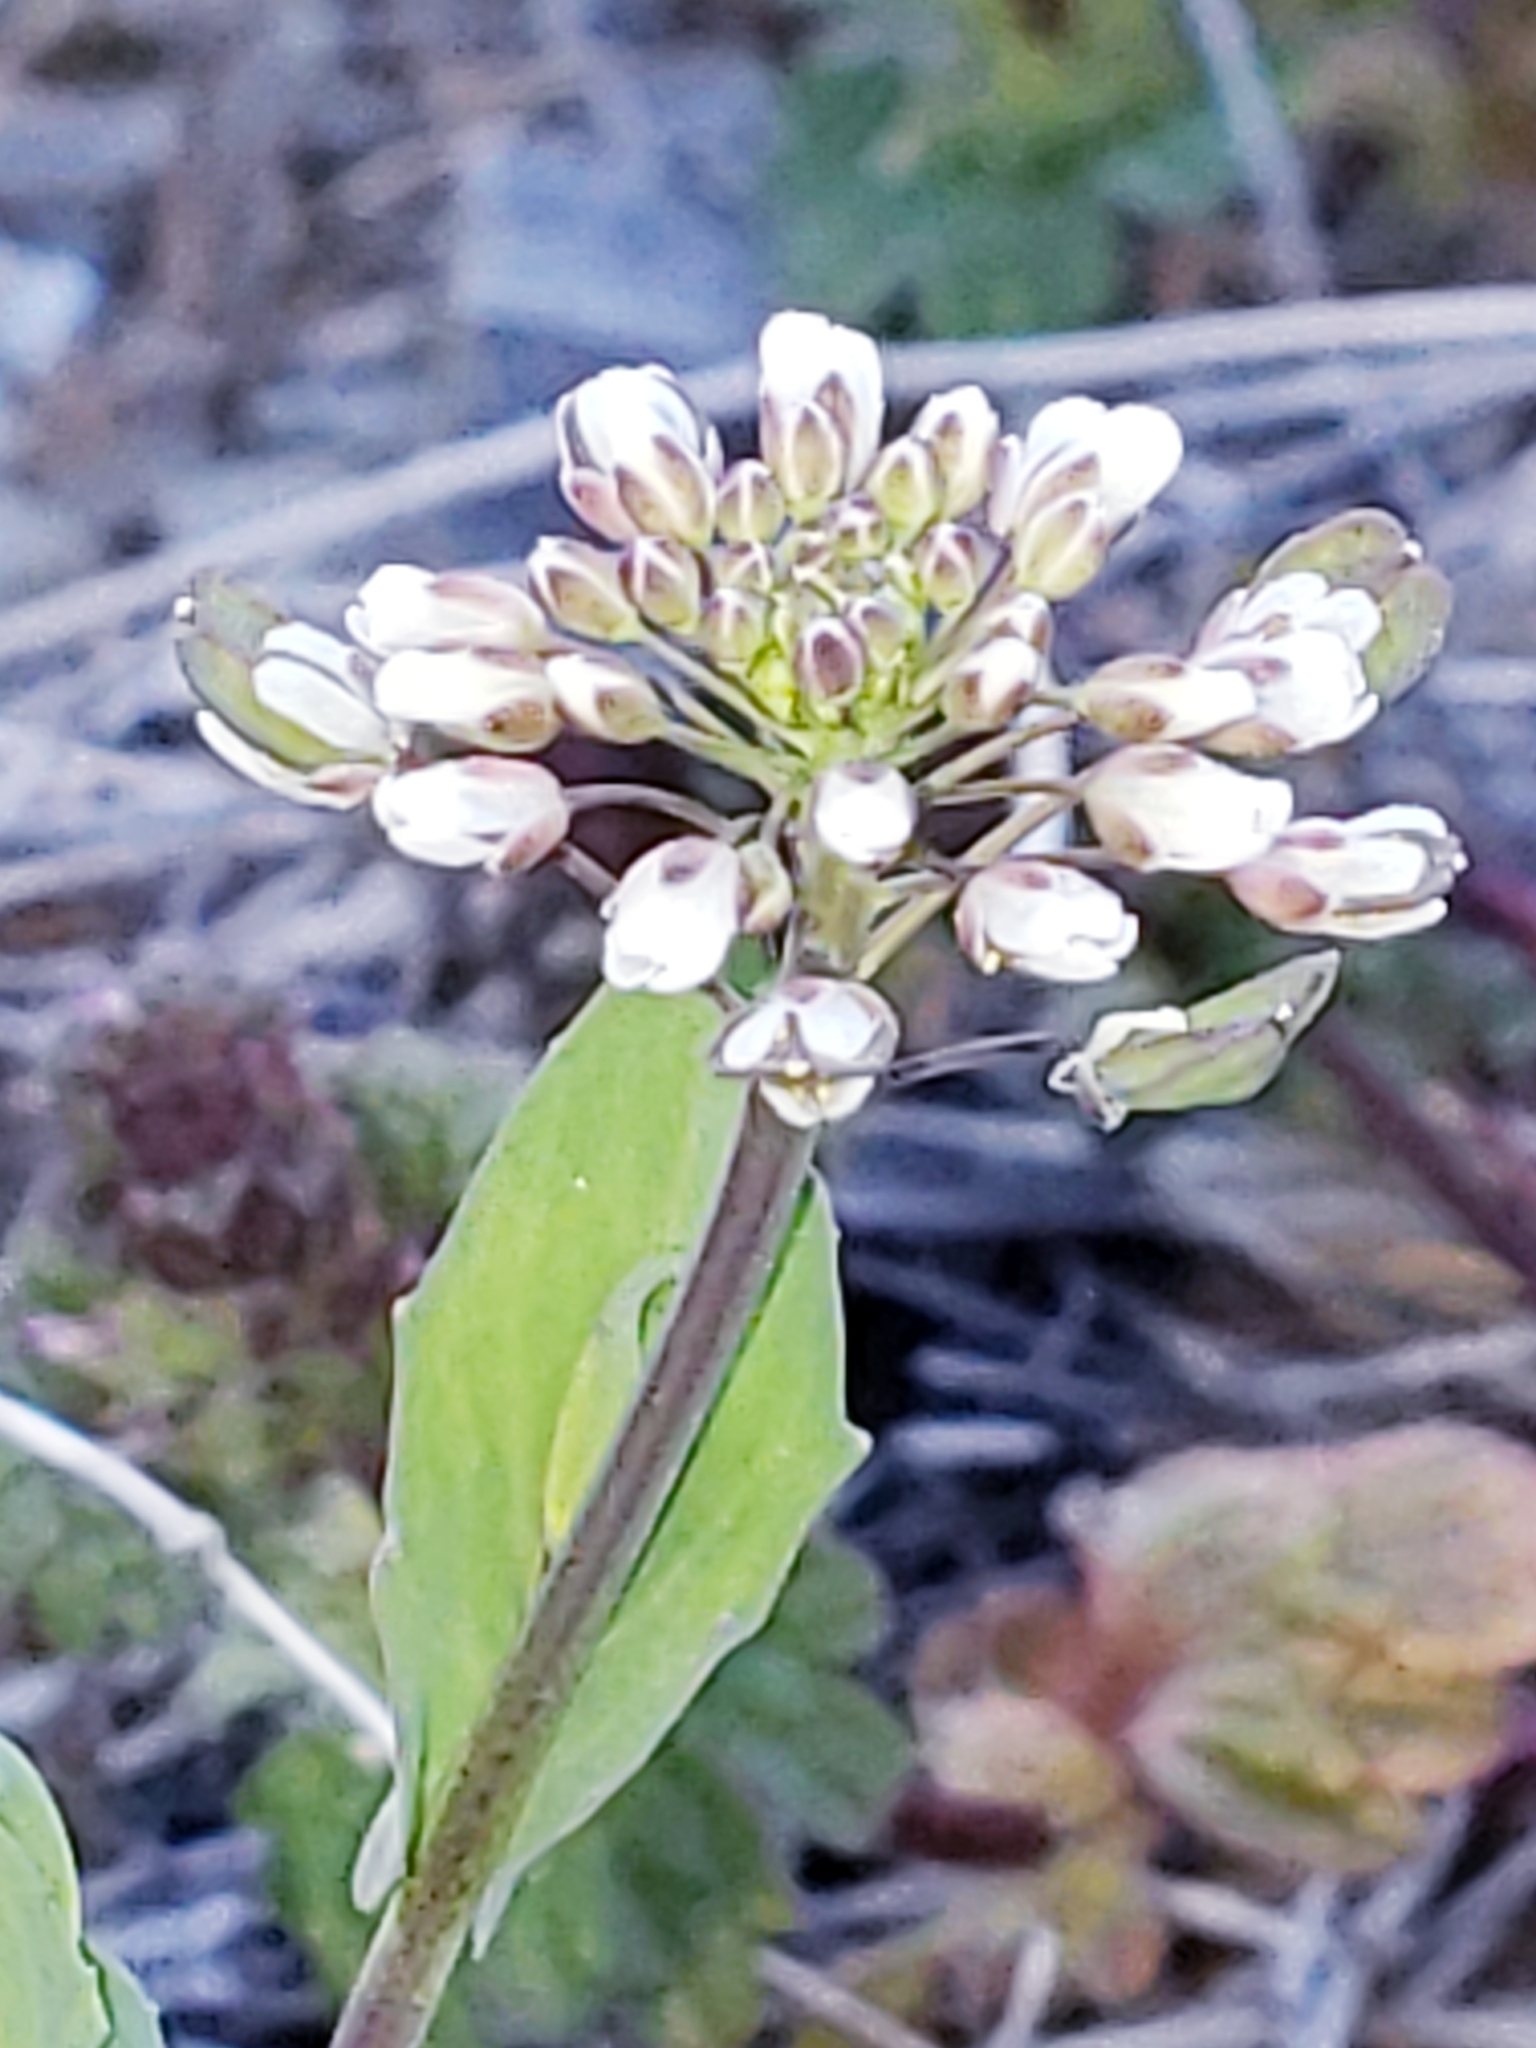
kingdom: Plantae
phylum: Tracheophyta
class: Magnoliopsida
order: Brassicales
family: Brassicaceae
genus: Noccaea
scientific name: Noccaea perfoliata
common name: Perfoliate pennycress
